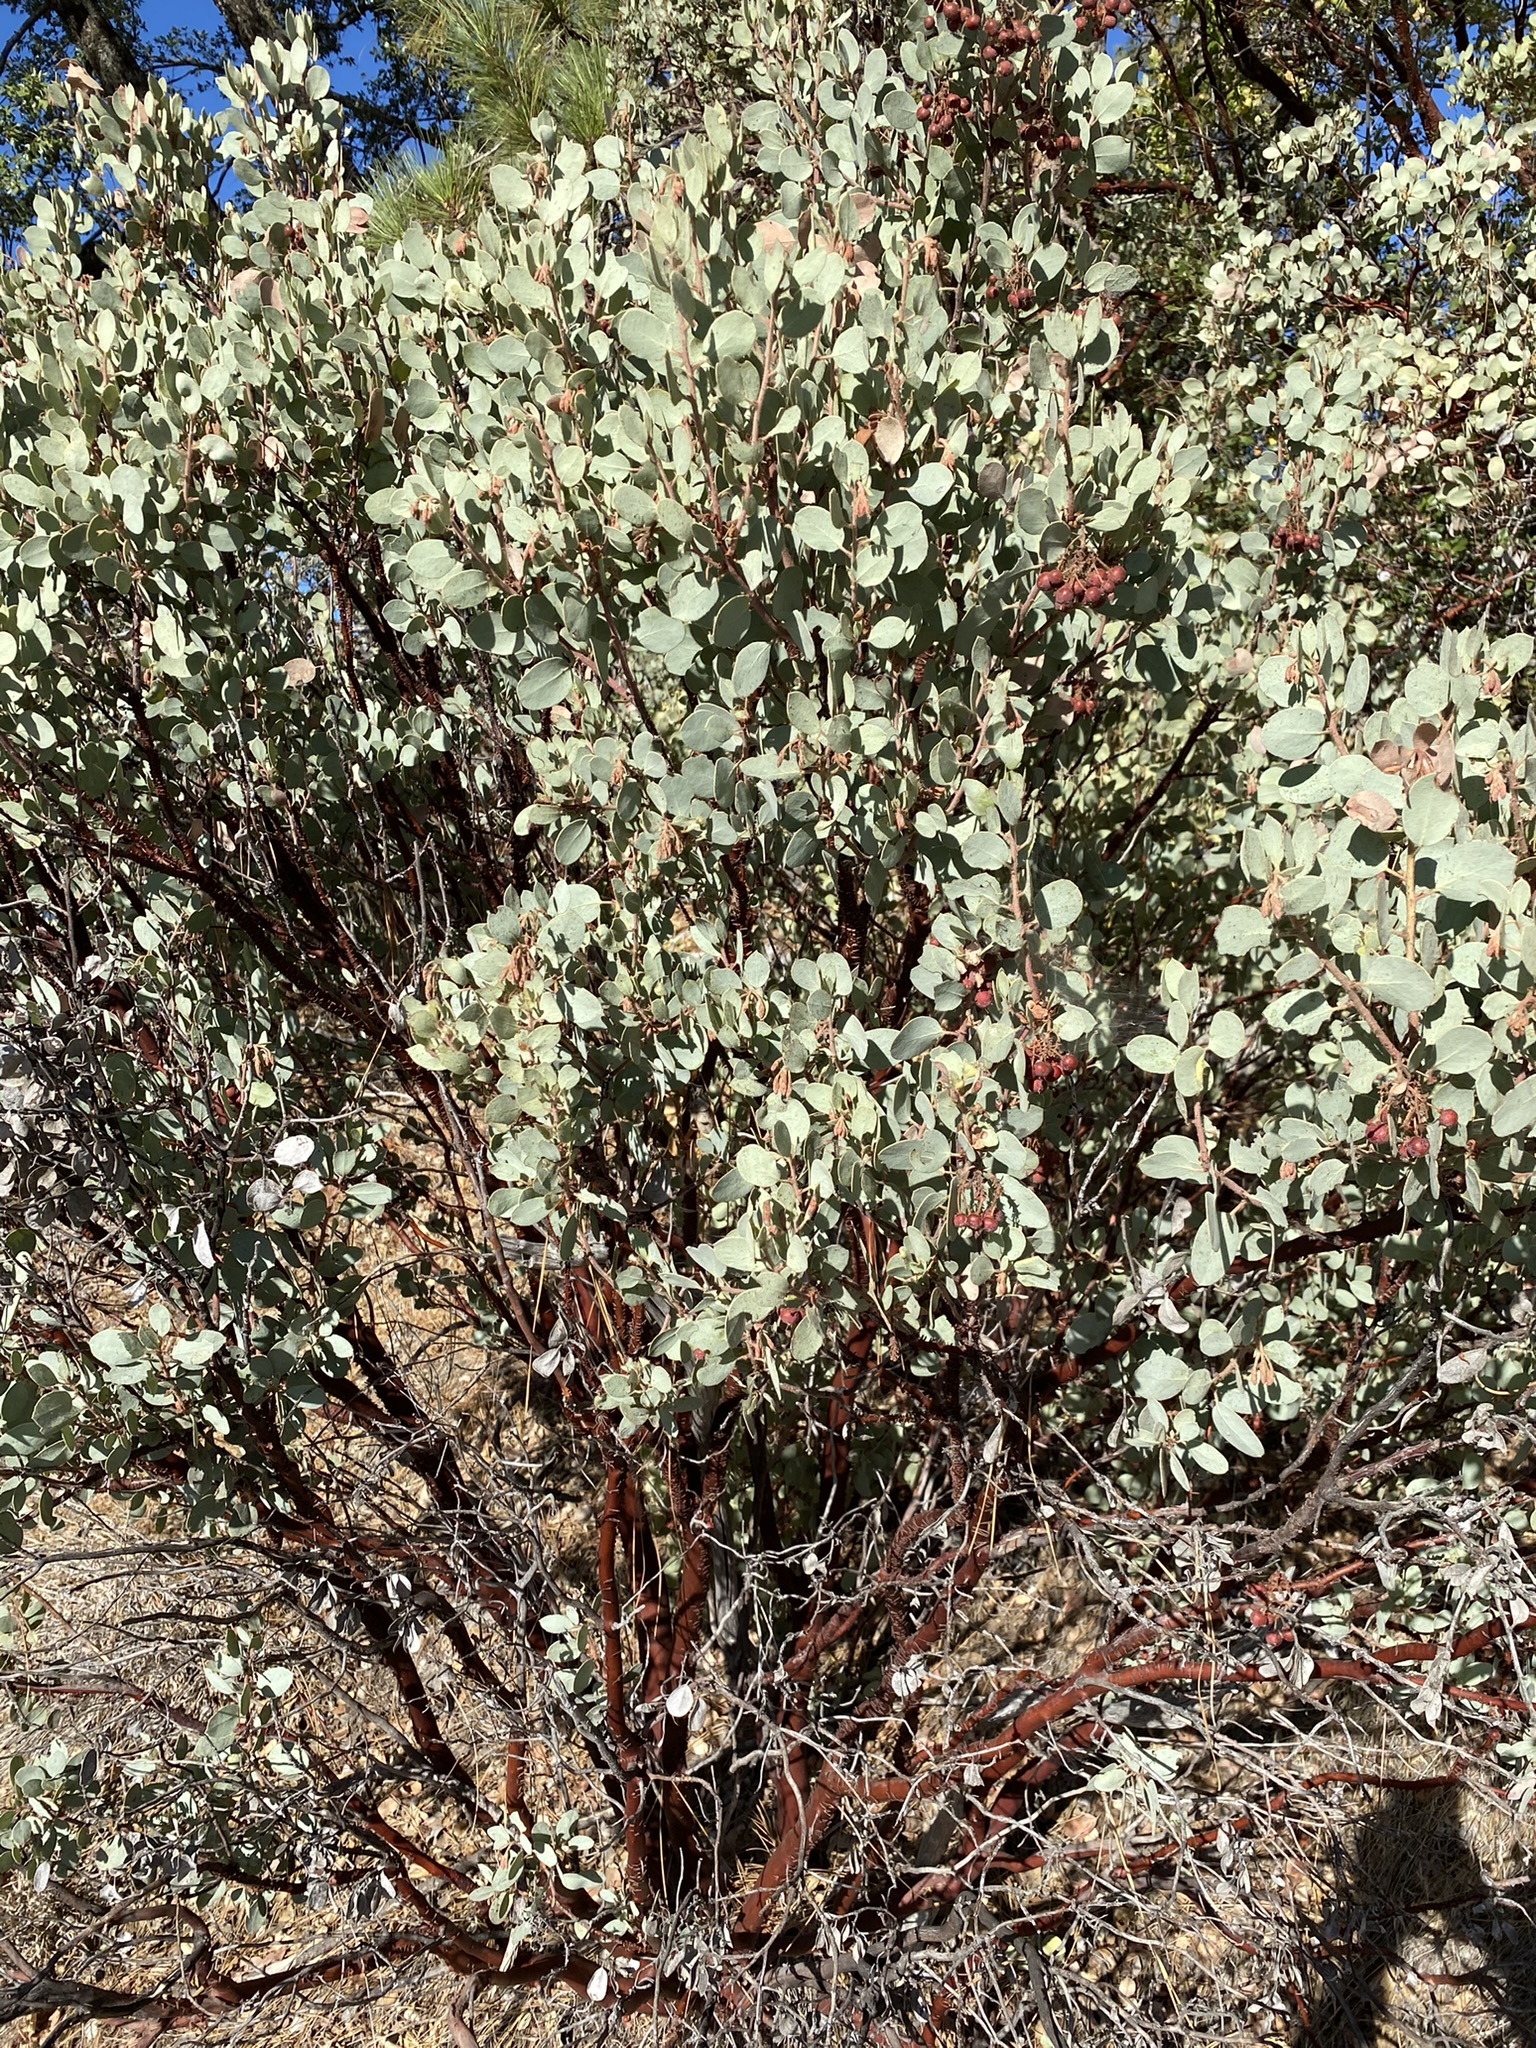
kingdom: Plantae
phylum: Tracheophyta
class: Magnoliopsida
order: Ericales
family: Ericaceae
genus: Arctostaphylos
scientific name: Arctostaphylos viscida
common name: White-leaf manzanita
